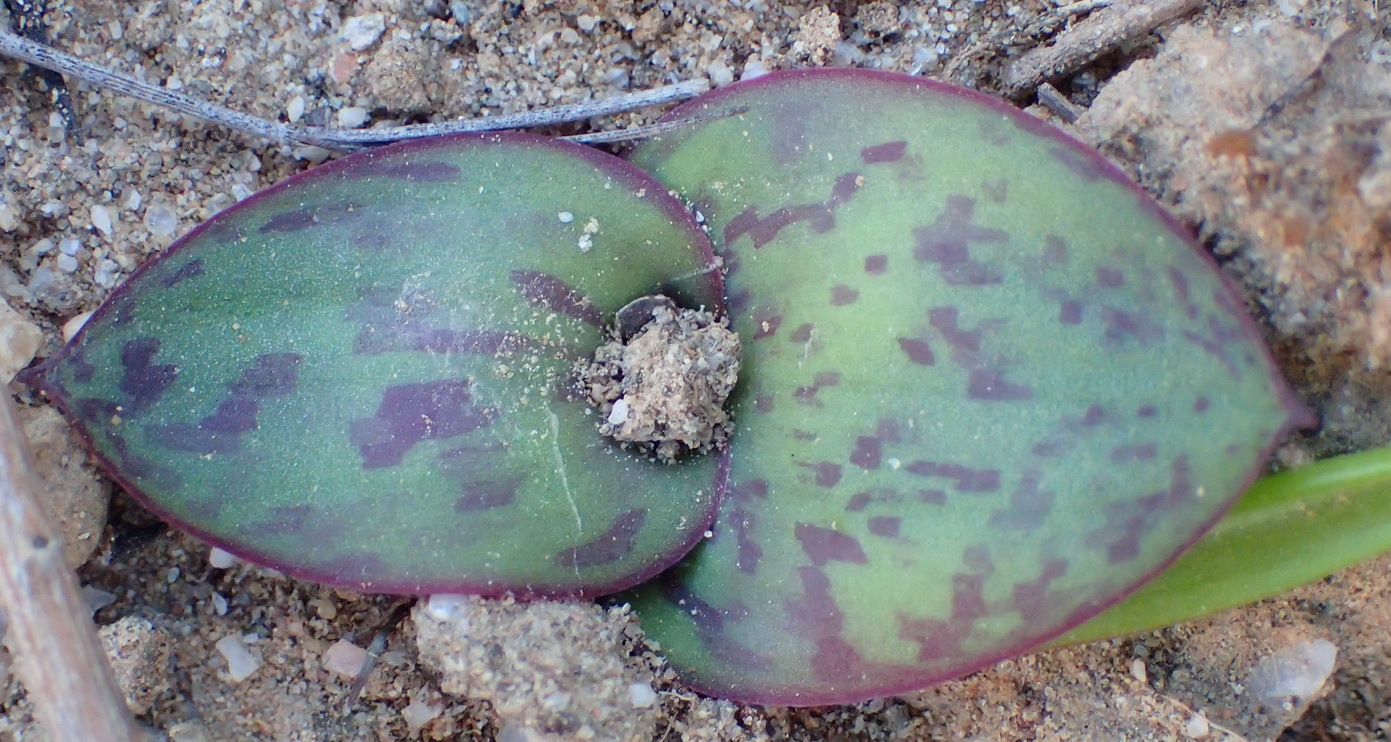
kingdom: Plantae
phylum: Tracheophyta
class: Liliopsida
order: Asparagales
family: Asparagaceae
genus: Massonia
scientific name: Massonia depressa
